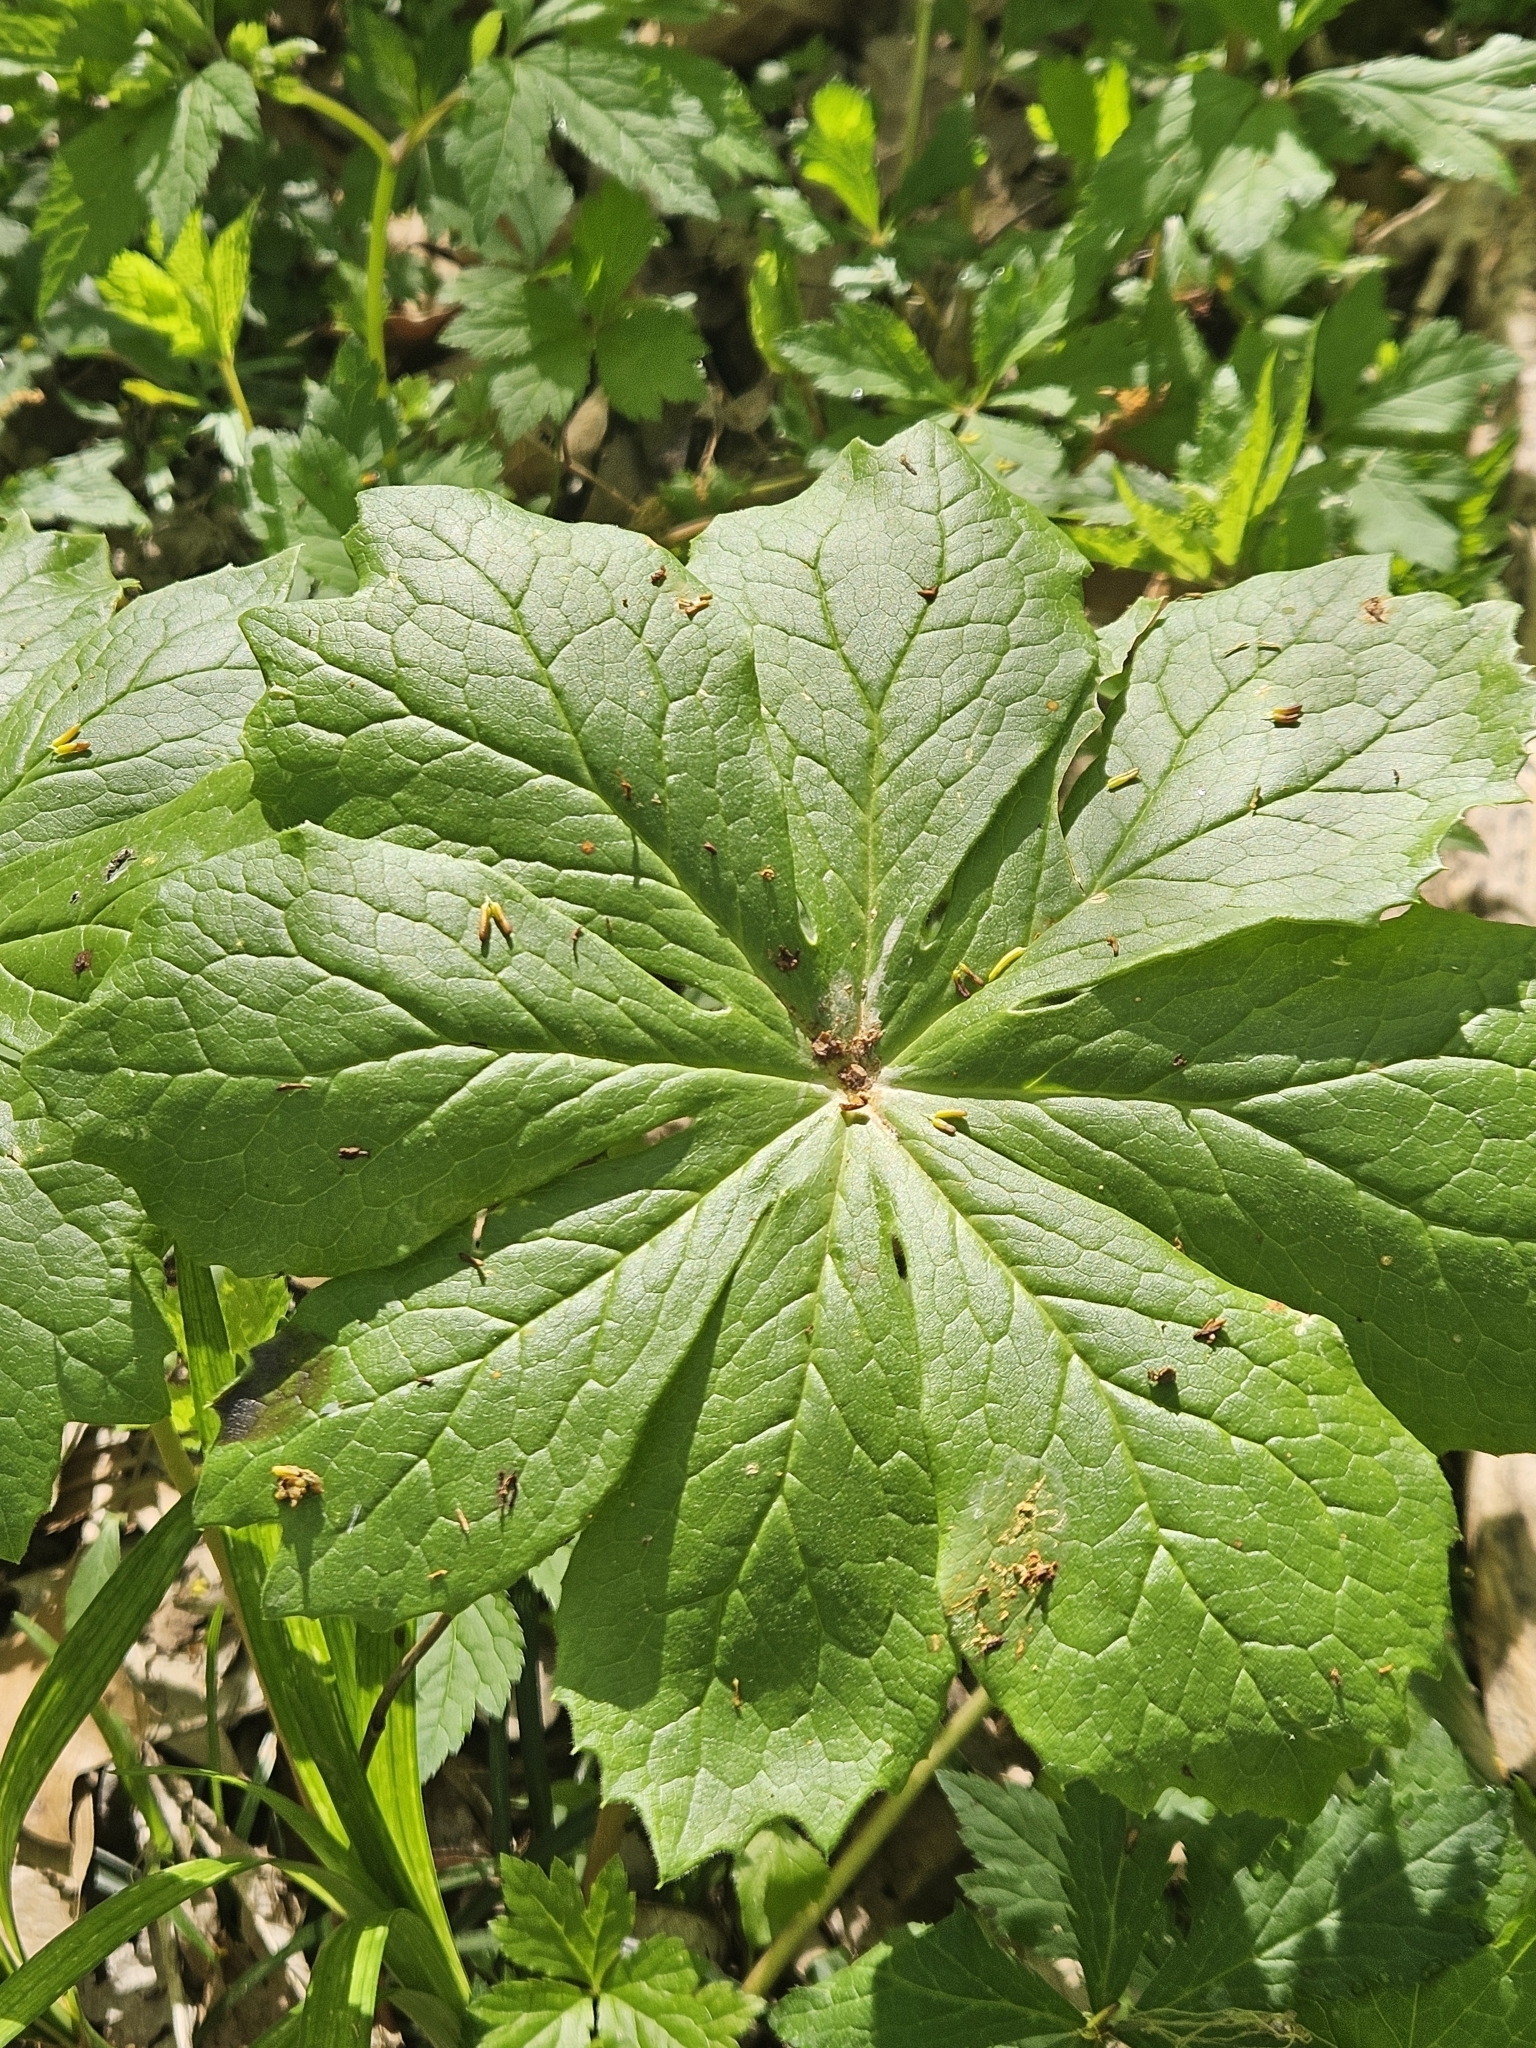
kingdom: Plantae
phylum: Tracheophyta
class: Magnoliopsida
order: Ranunculales
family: Berberidaceae
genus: Podophyllum
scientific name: Podophyllum peltatum
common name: Wild mandrake
